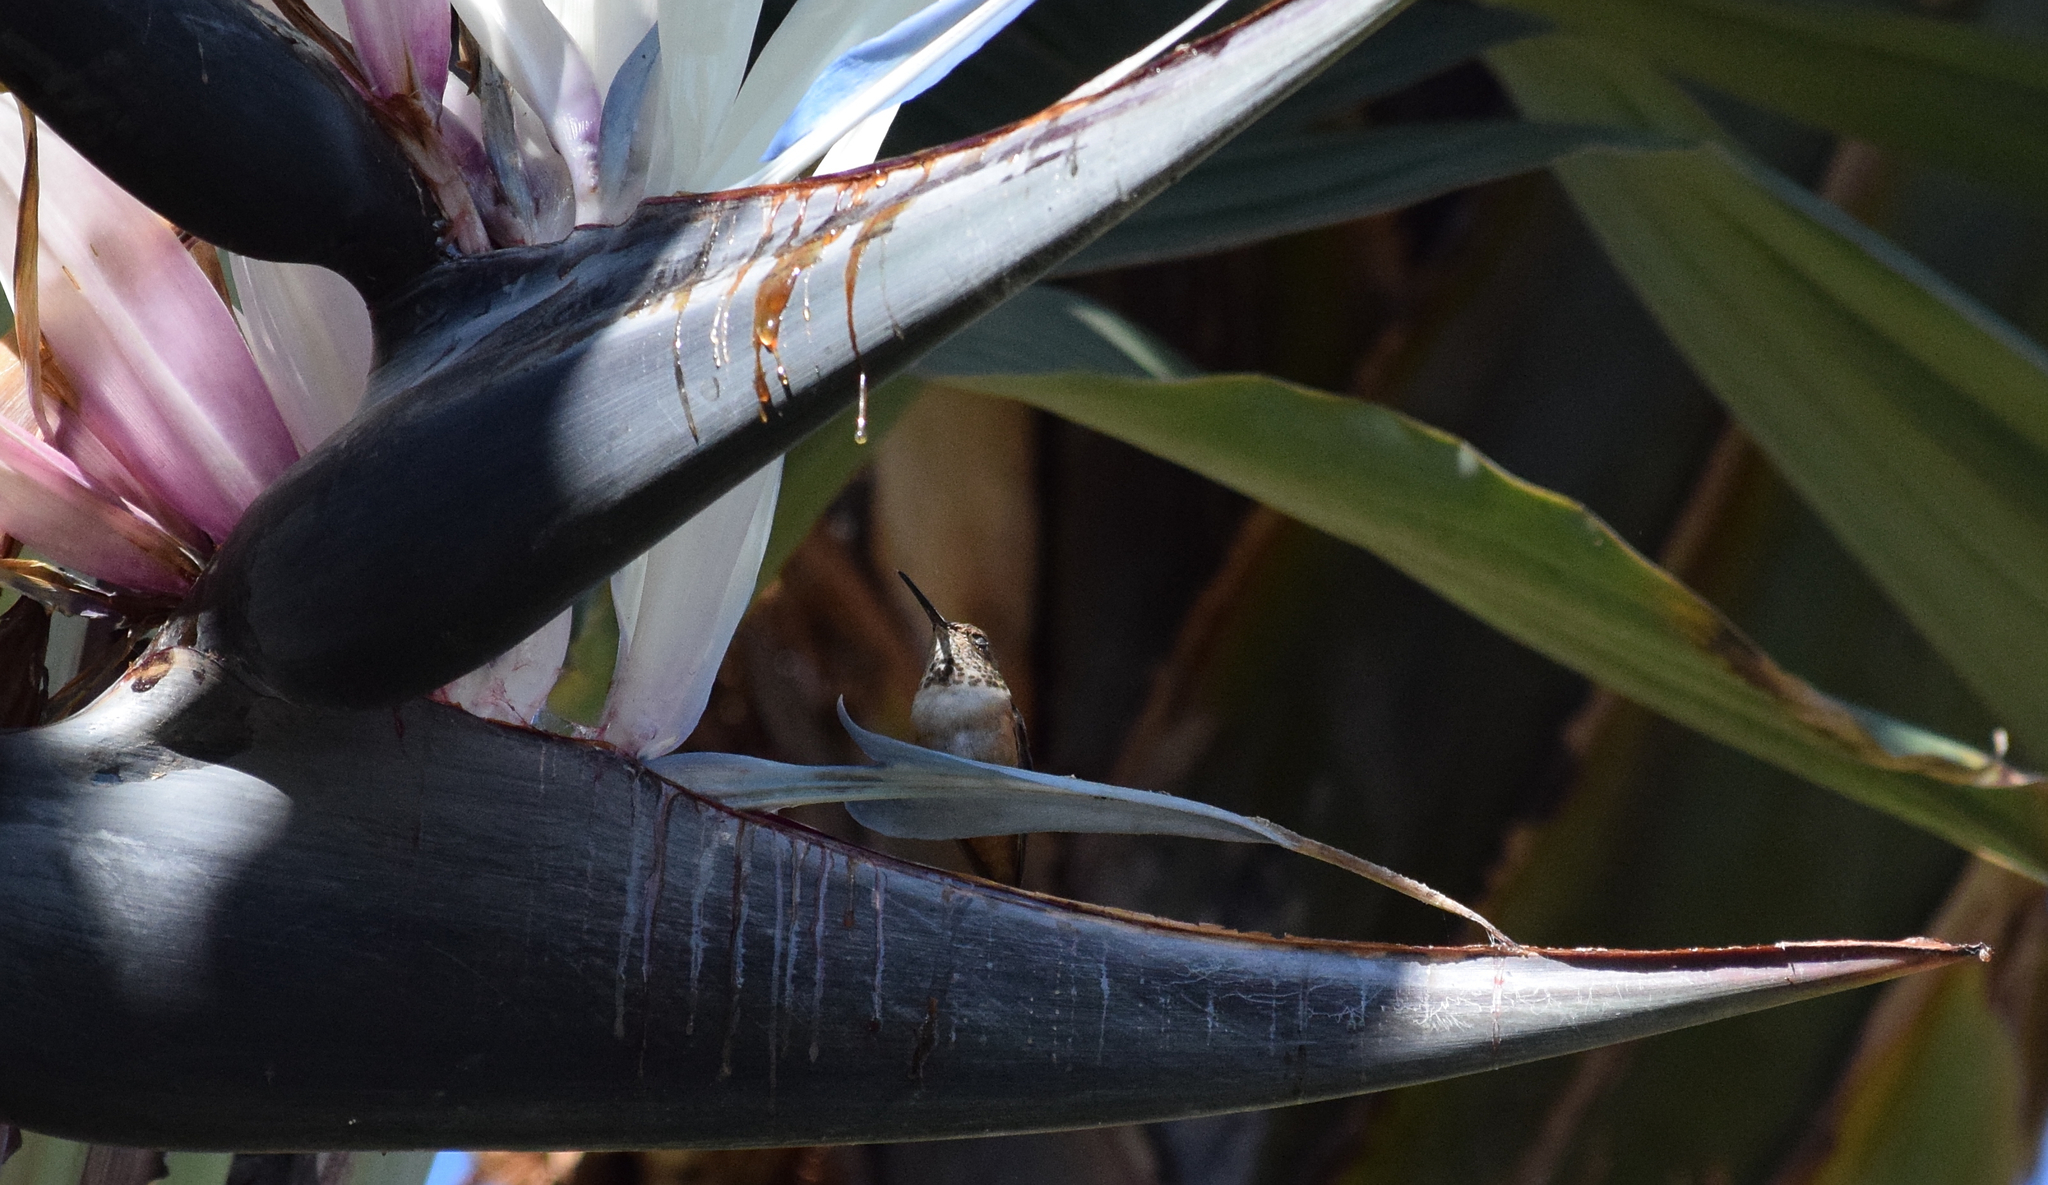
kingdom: Animalia
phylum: Chordata
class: Aves
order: Apodiformes
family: Trochilidae
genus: Selasphorus
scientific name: Selasphorus
